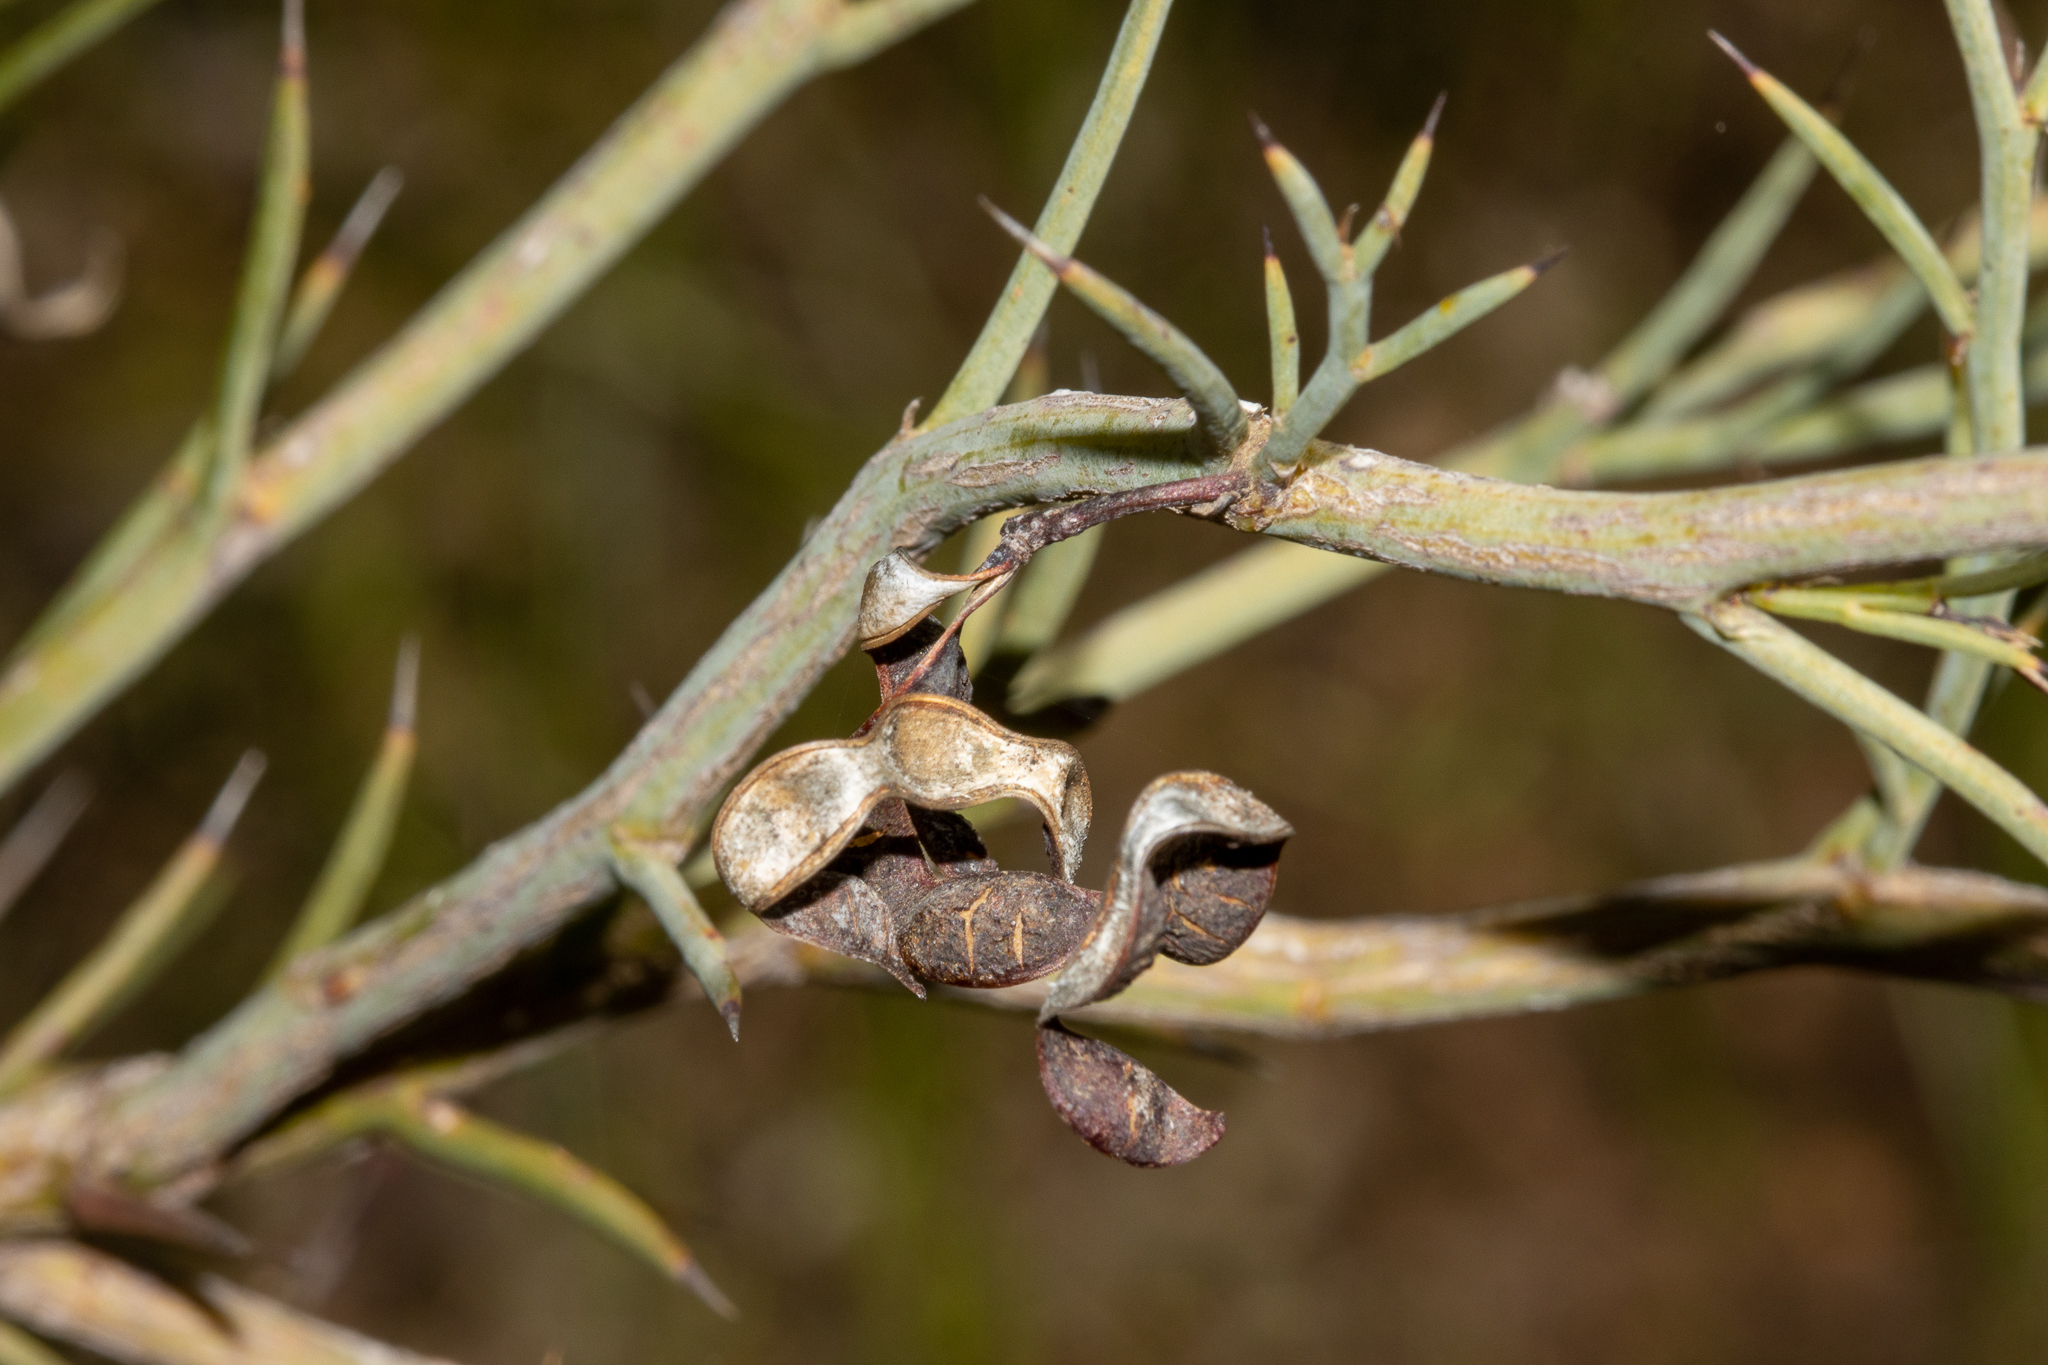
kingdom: Plantae
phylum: Tracheophyta
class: Magnoliopsida
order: Fabales
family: Fabaceae
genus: Acacia
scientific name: Acacia continua
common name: Thorn wattle
